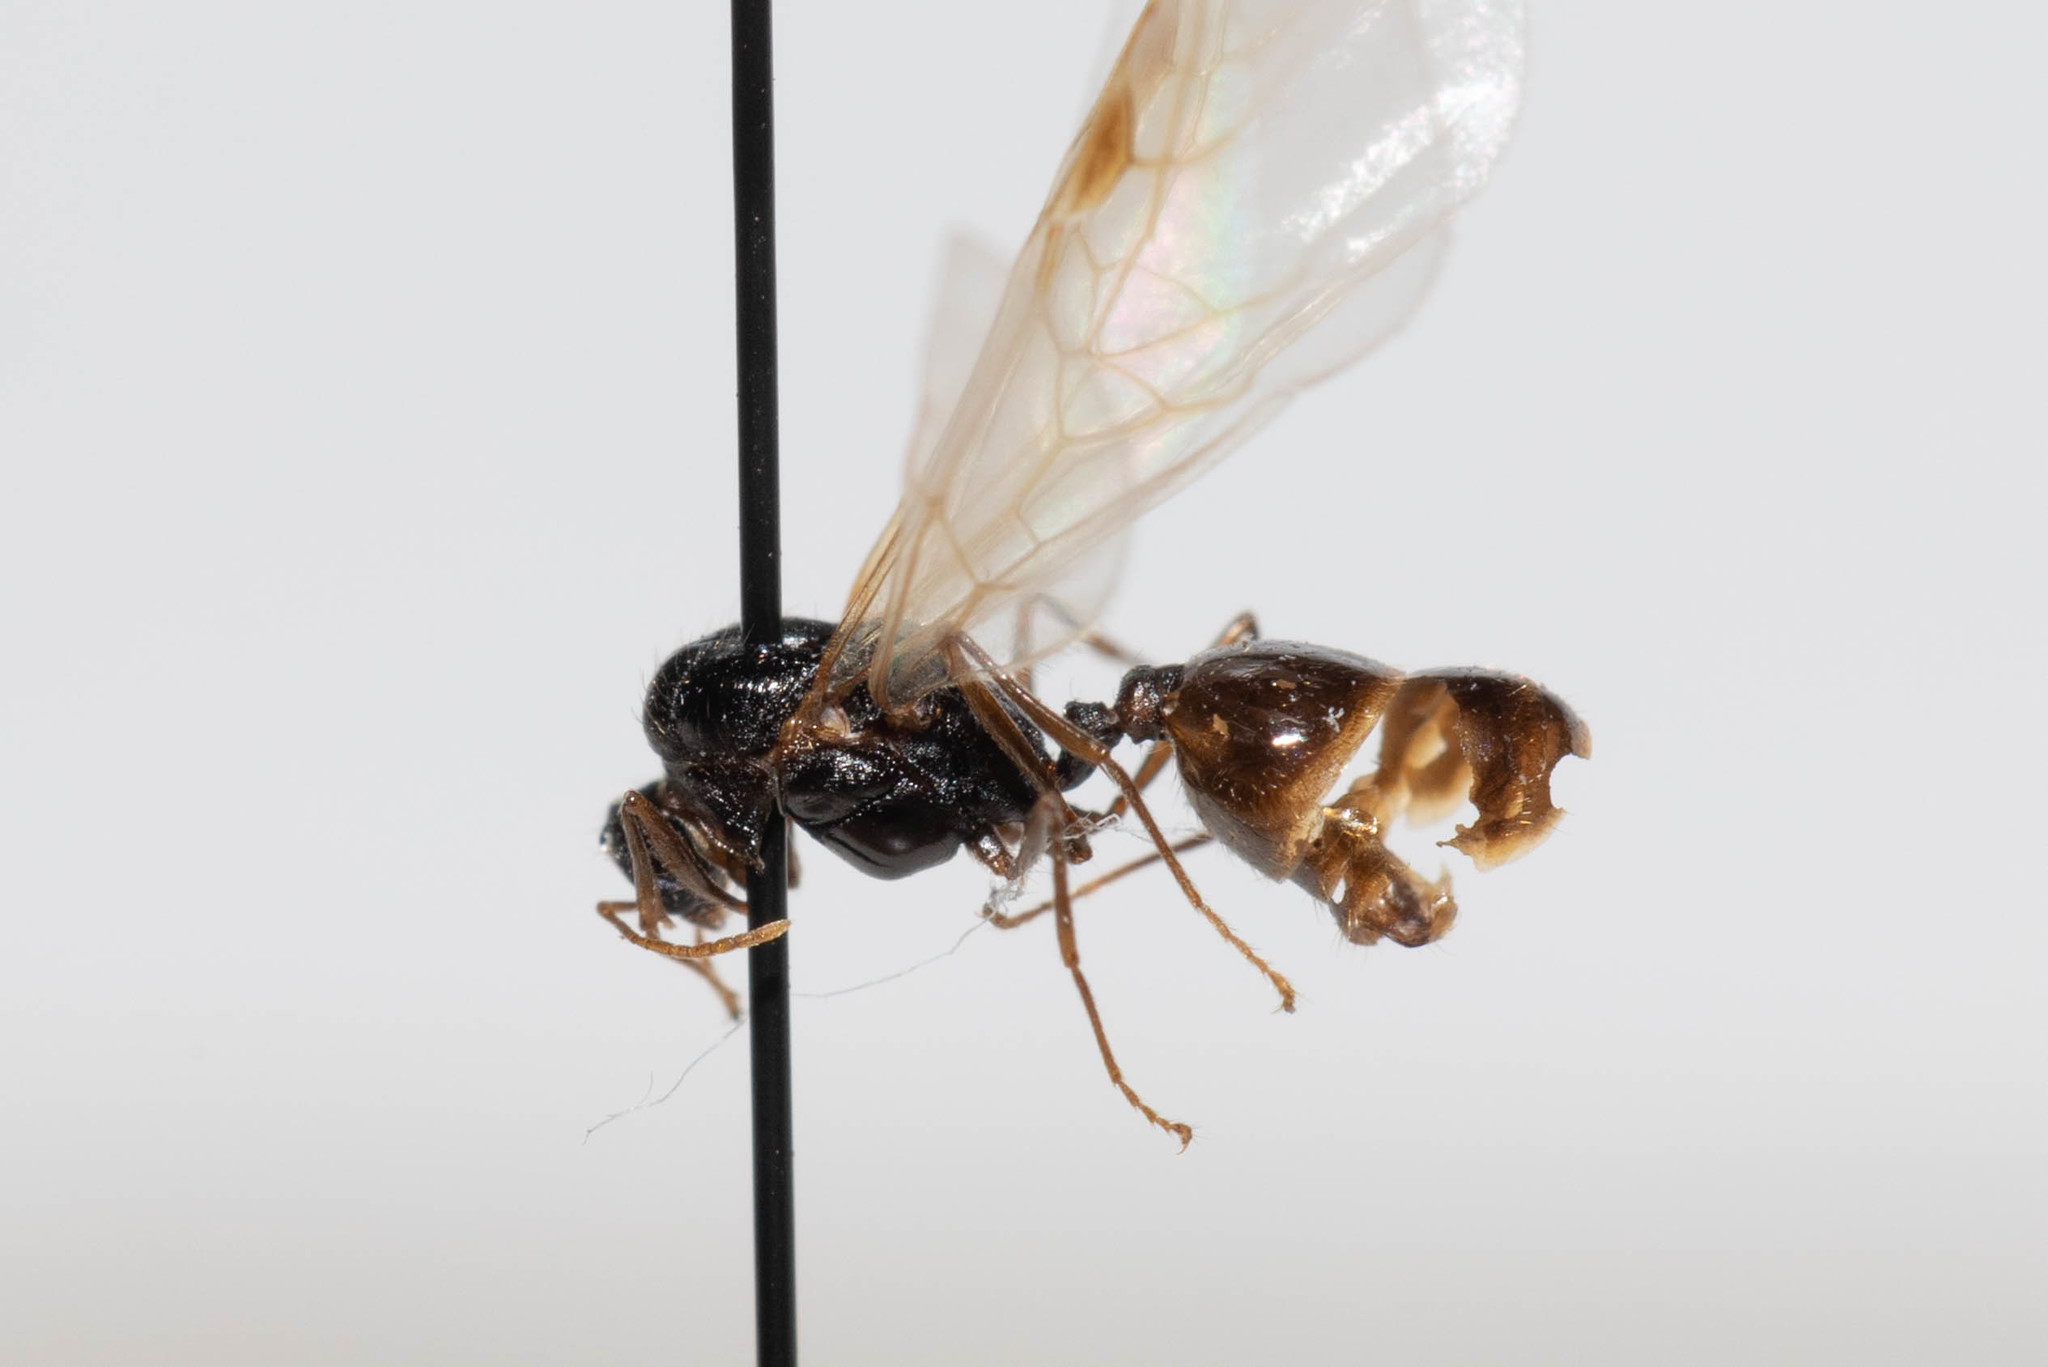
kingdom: Animalia
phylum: Arthropoda
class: Insecta
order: Hymenoptera
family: Formicidae
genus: Tetramorium
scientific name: Tetramorium immigrans
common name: Pavement ant
